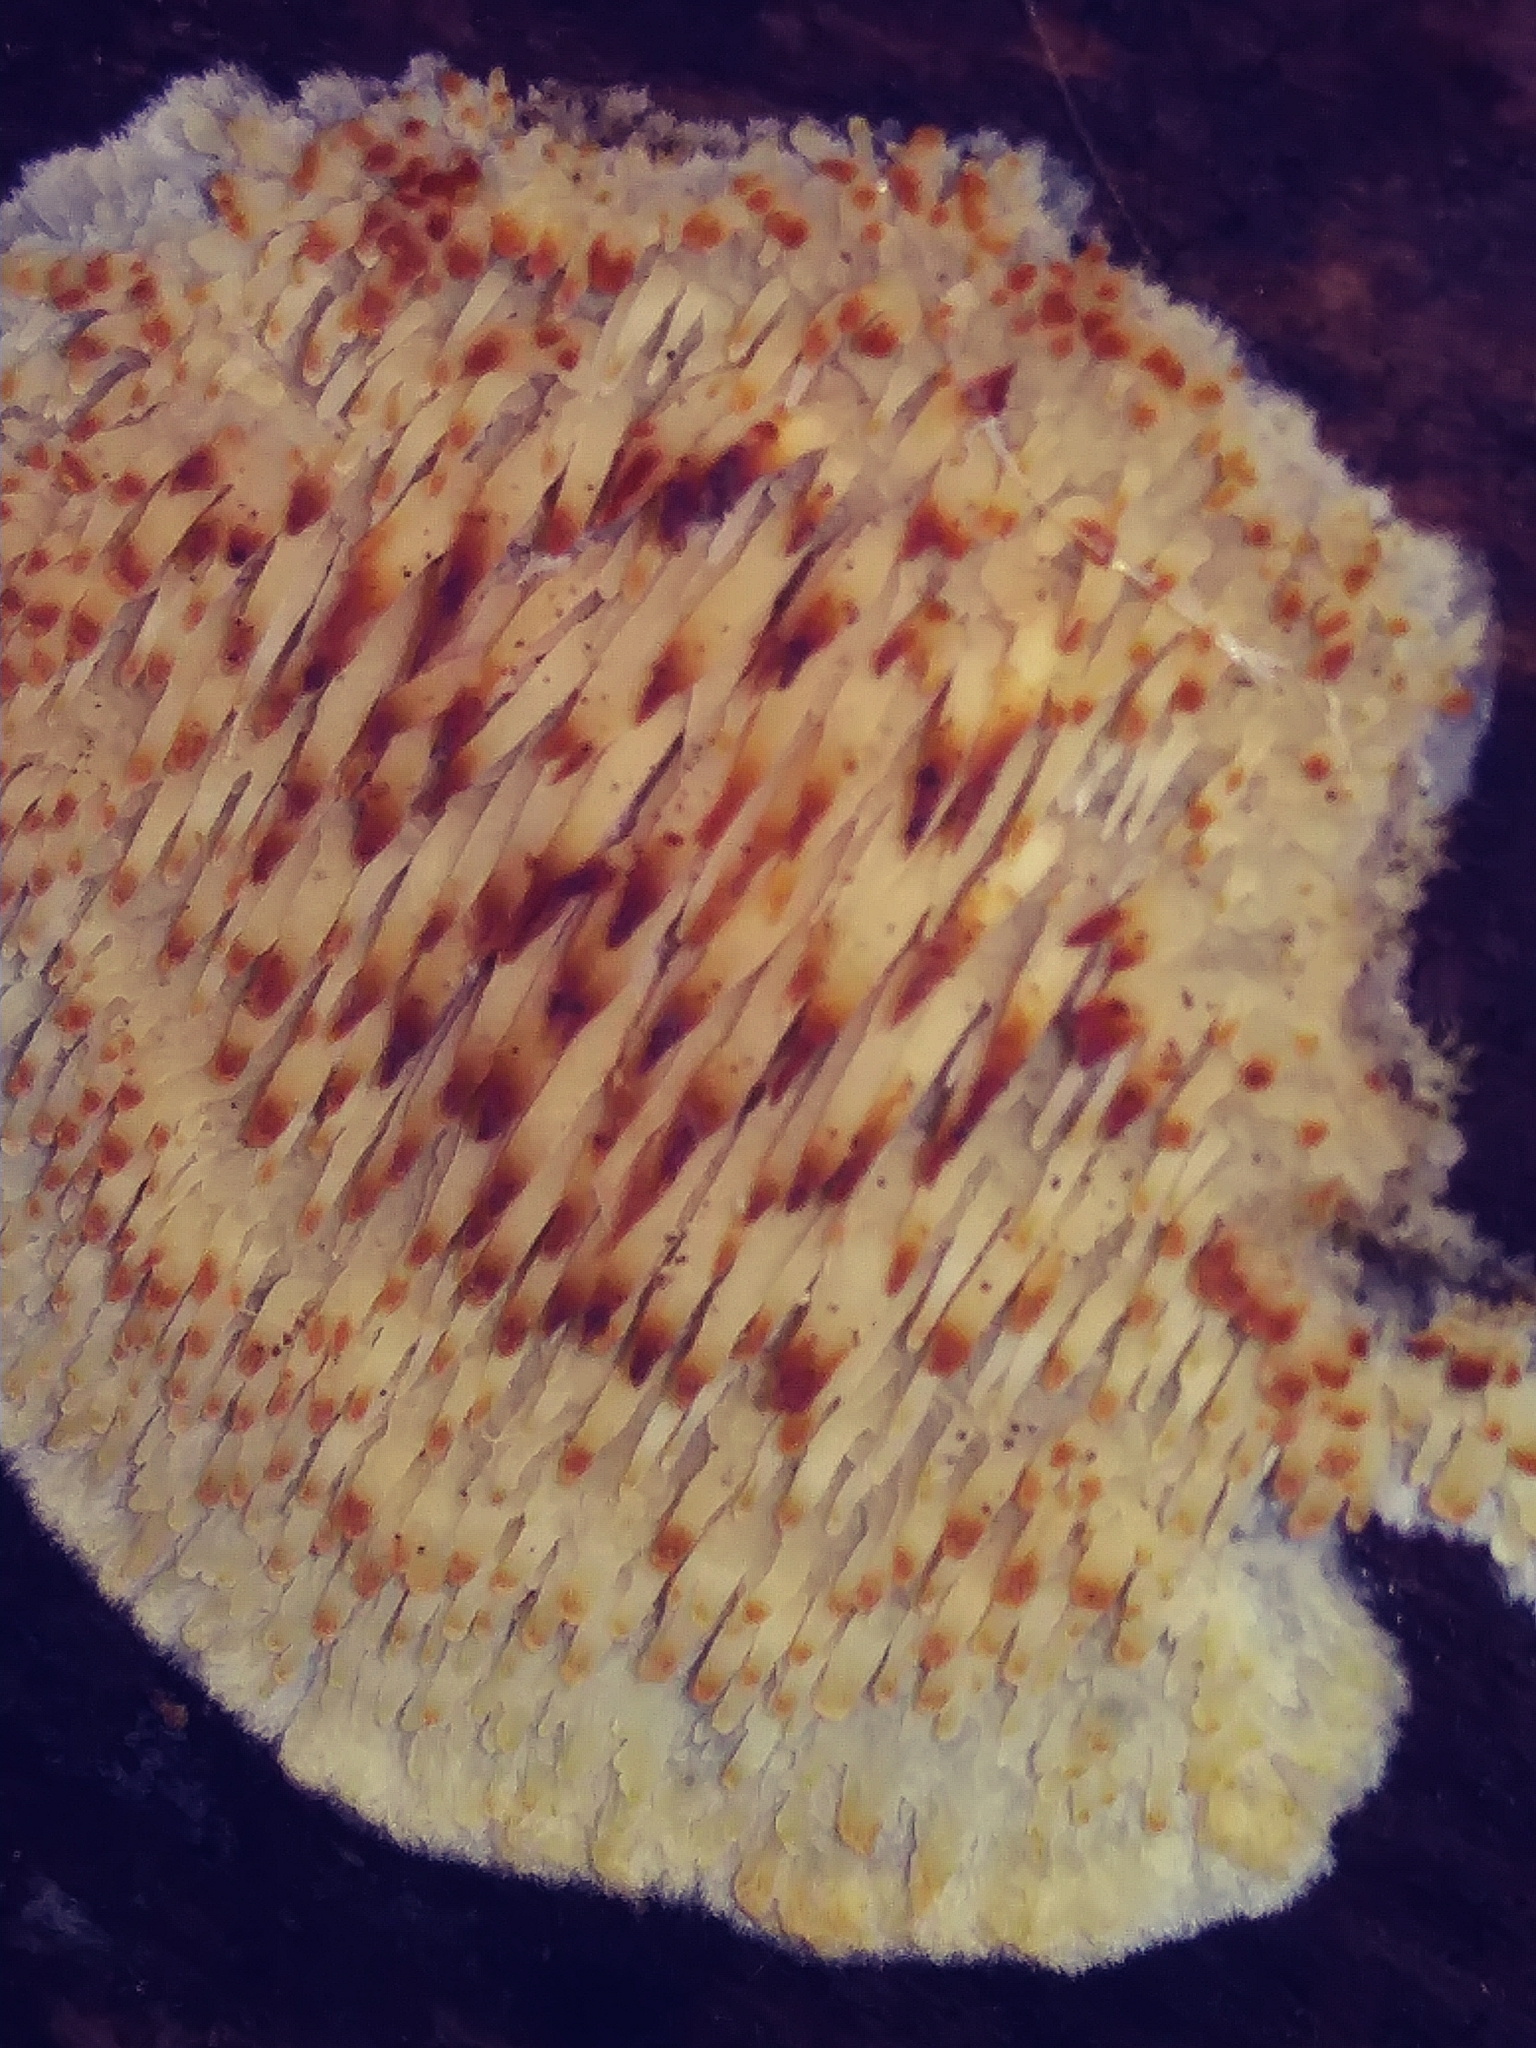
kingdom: Fungi
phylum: Basidiomycota
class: Agaricomycetes
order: Agaricales
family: Radulomycetaceae
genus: Radulomyces
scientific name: Radulomyces copelandii
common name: Asian beauty
